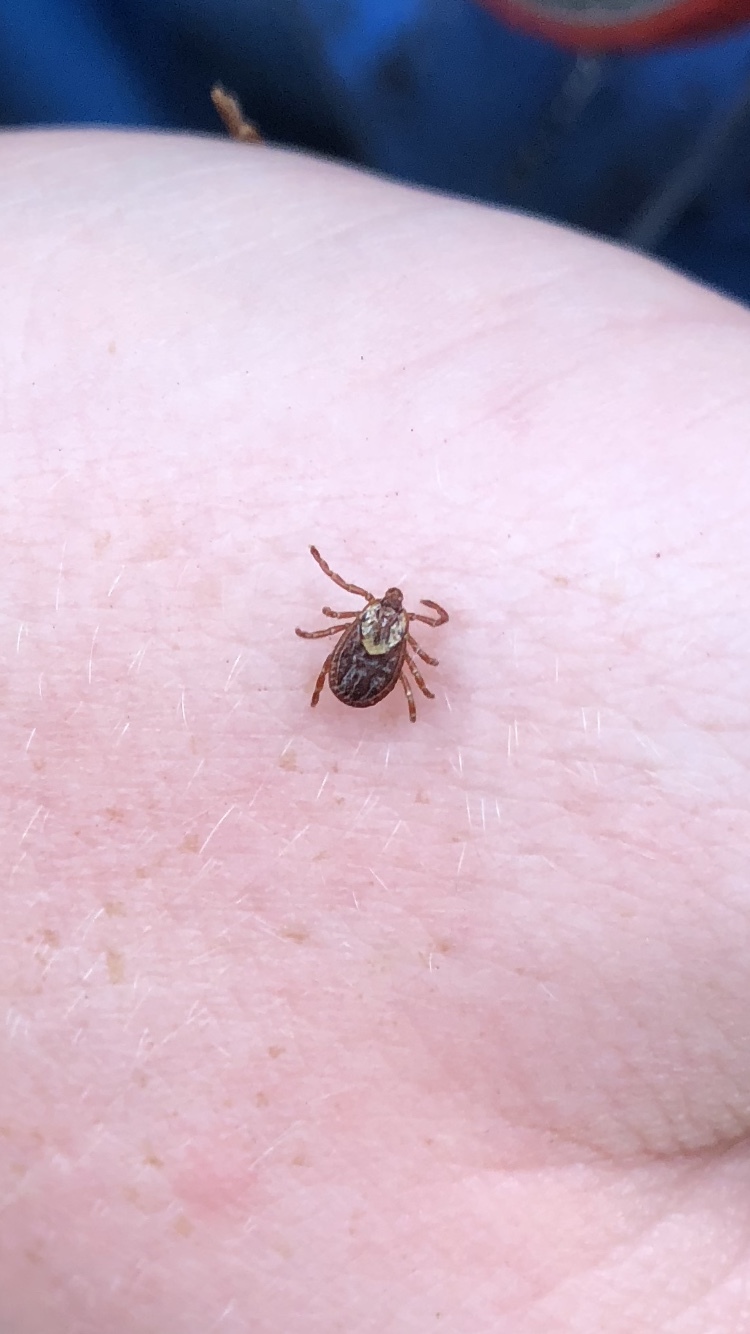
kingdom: Animalia
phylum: Arthropoda
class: Arachnida
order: Ixodida
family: Ixodidae
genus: Dermacentor
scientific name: Dermacentor variabilis
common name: American dog tick
